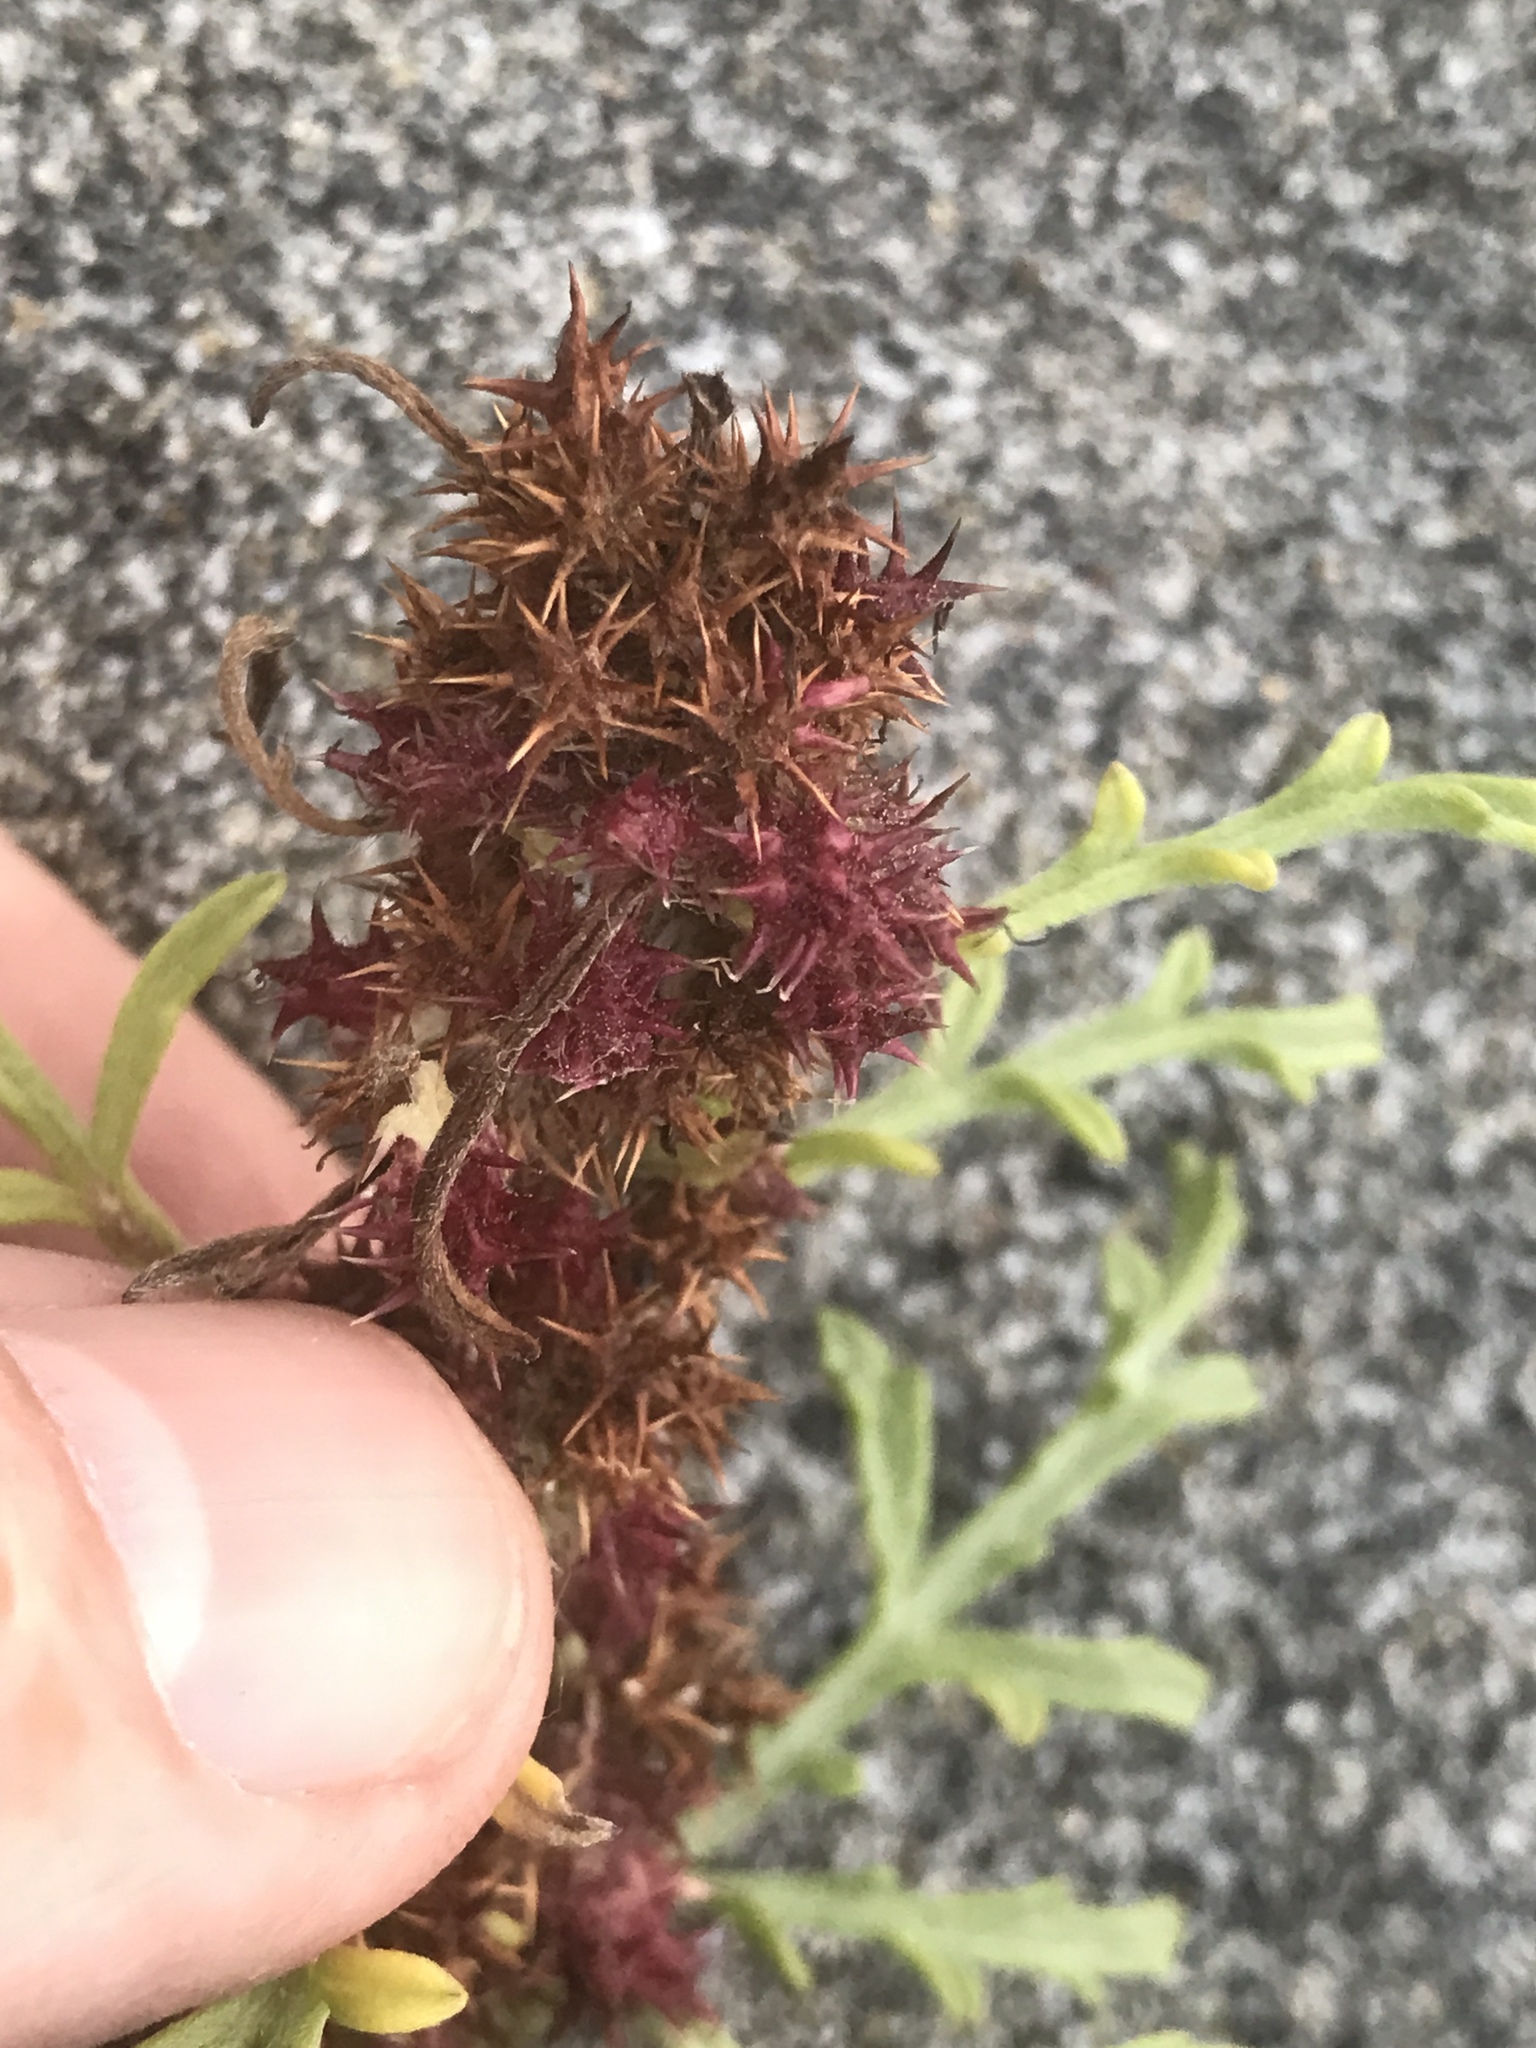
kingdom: Plantae
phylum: Tracheophyta
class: Magnoliopsida
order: Asterales
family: Asteraceae
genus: Ambrosia
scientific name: Ambrosia chamissonis
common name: Beachbur
